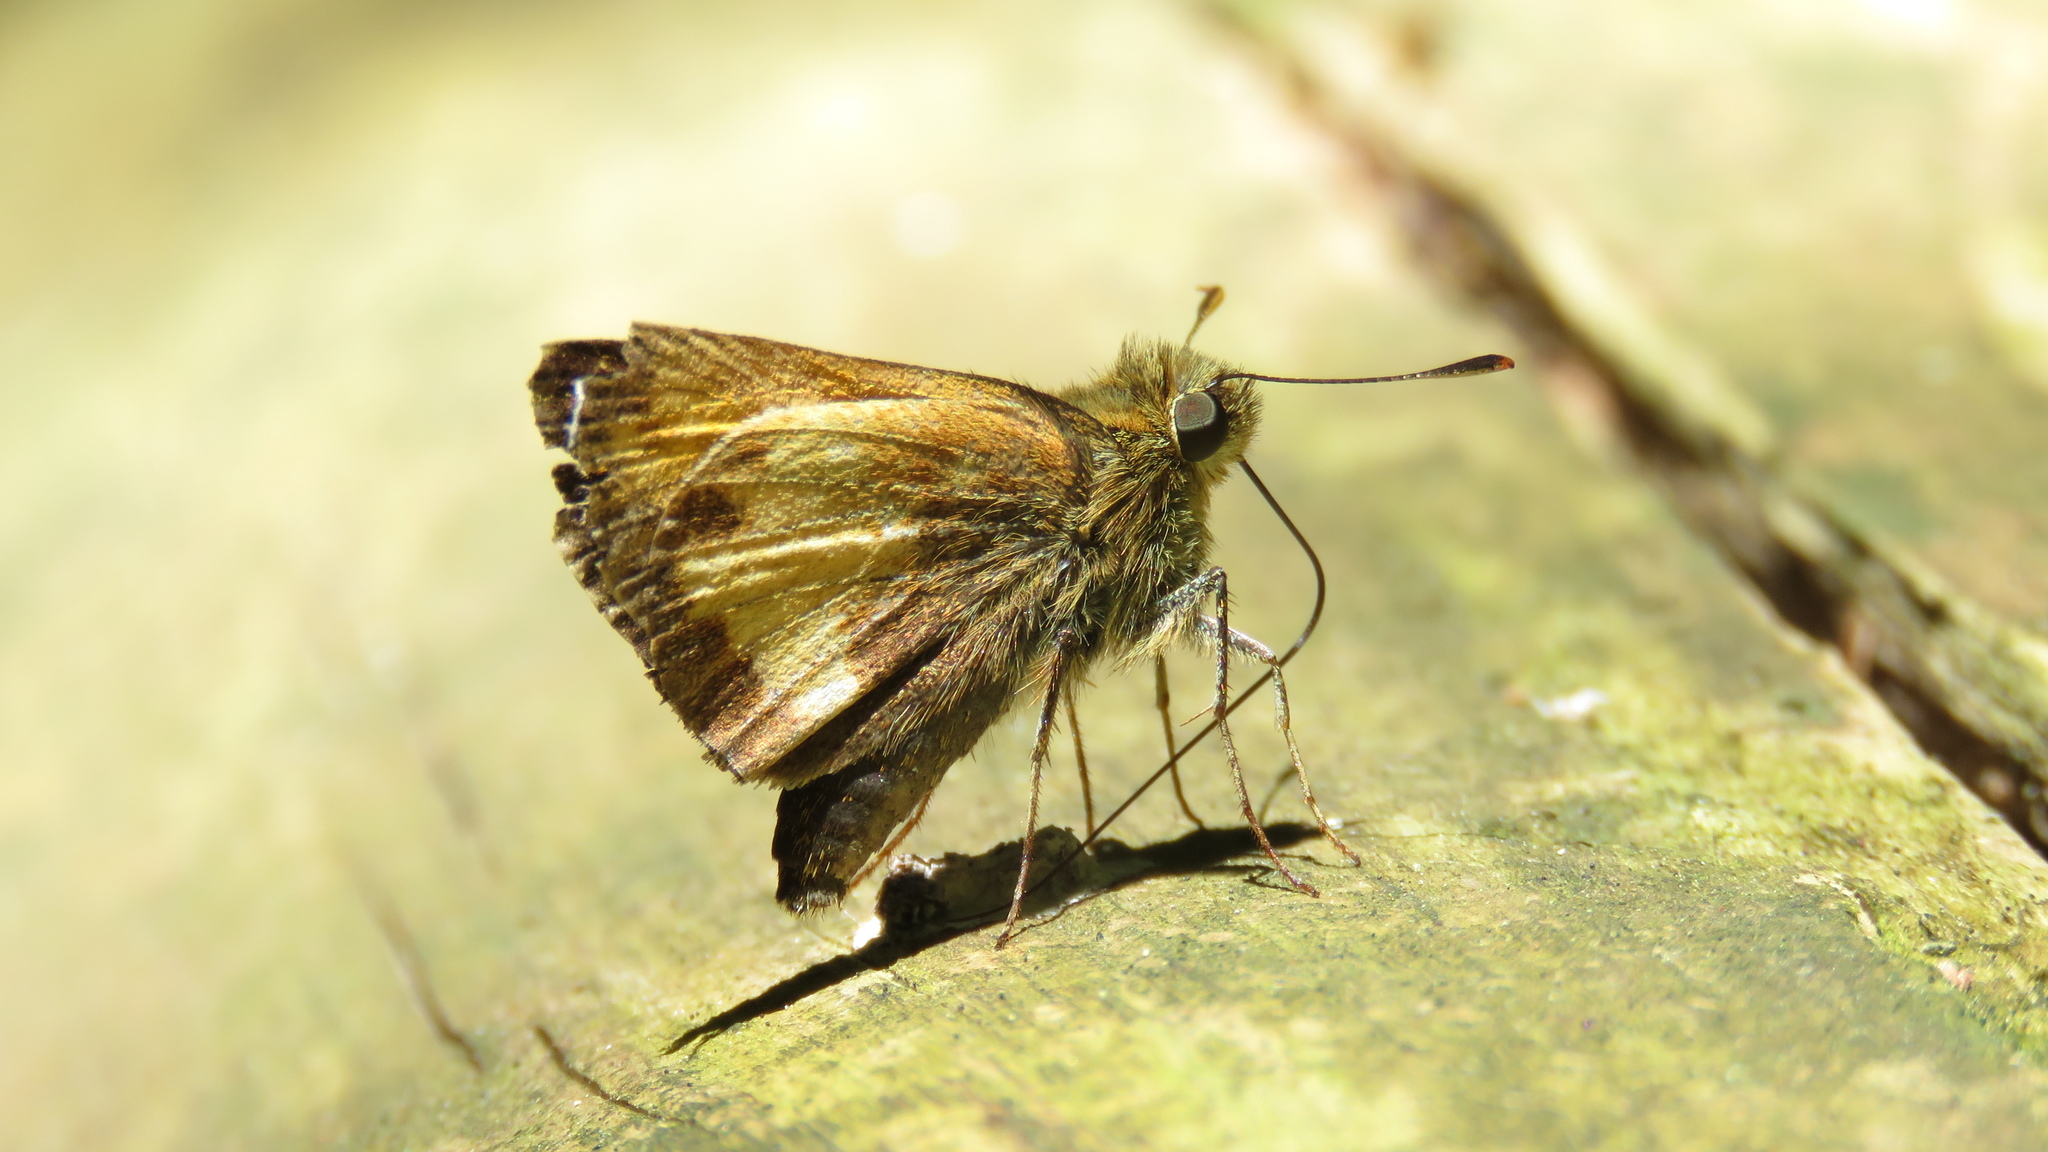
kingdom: Animalia
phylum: Arthropoda
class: Insecta
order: Lepidoptera
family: Hesperiidae
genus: Lon
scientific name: Lon hobomok
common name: Hobomok skipper
